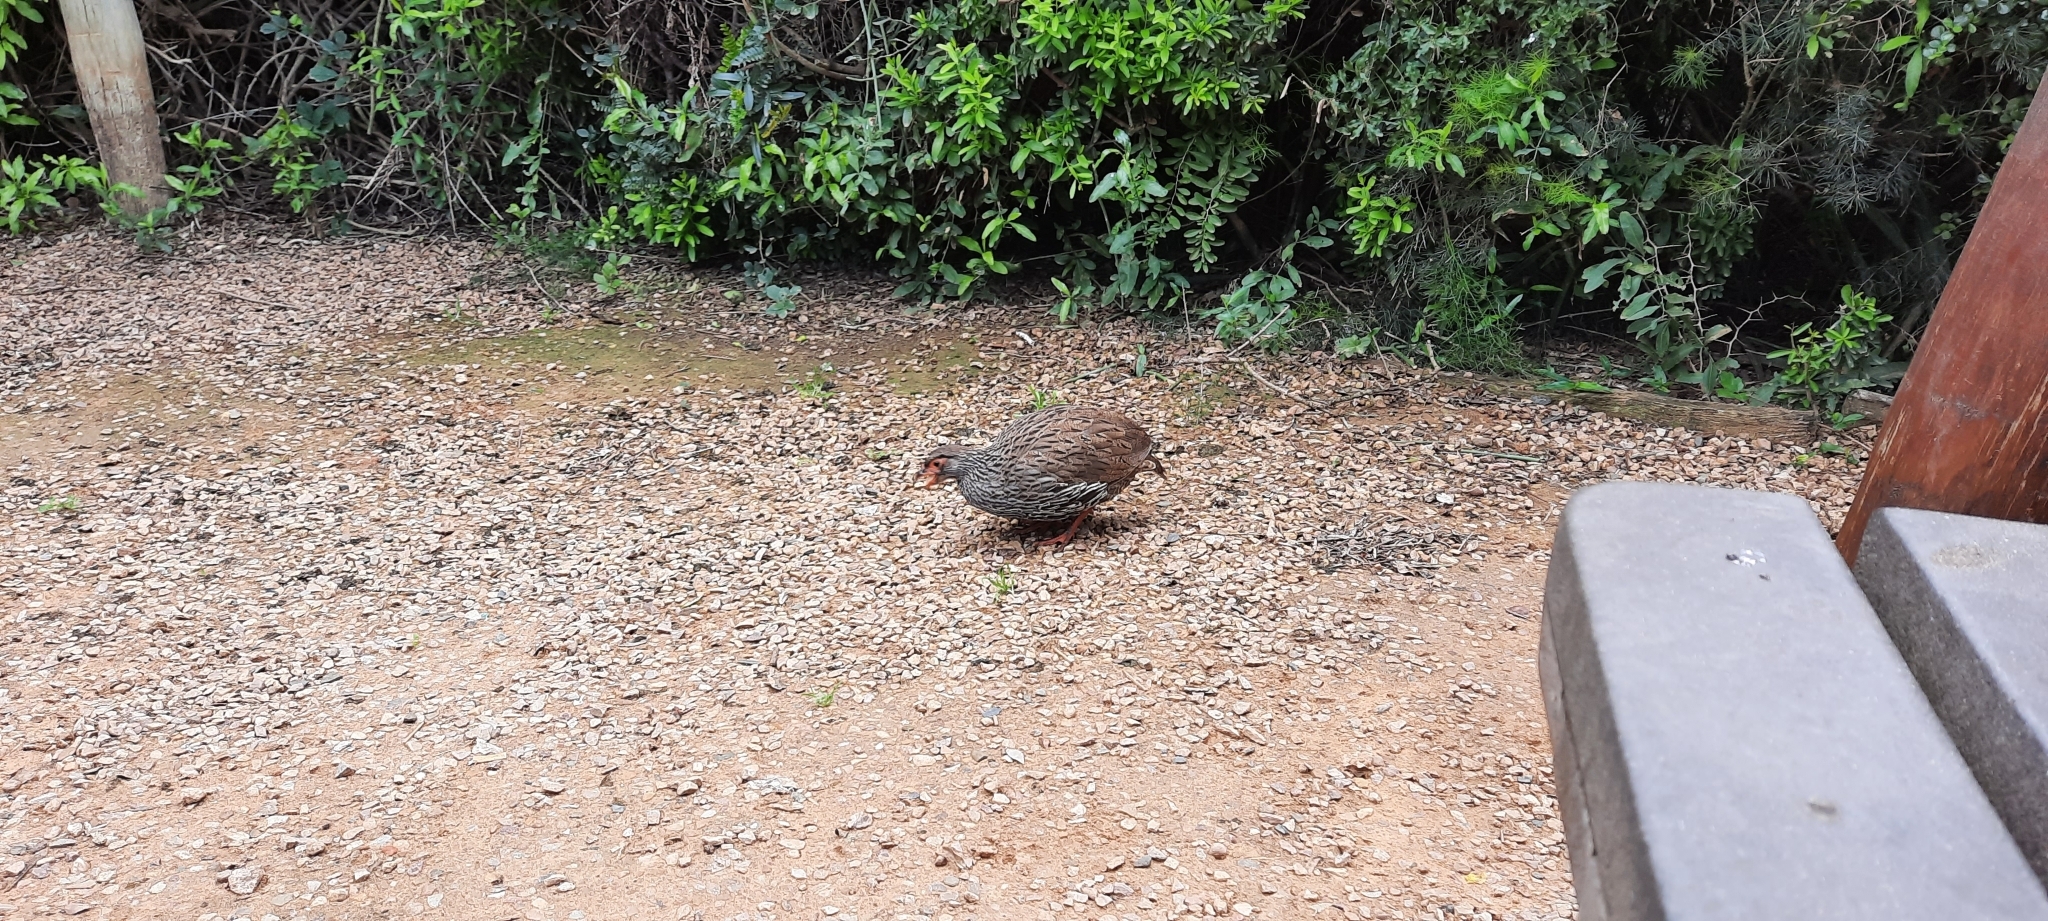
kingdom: Animalia
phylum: Chordata
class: Aves
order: Galliformes
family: Phasianidae
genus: Pternistis
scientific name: Pternistis afer
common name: Red-necked spurfowl
